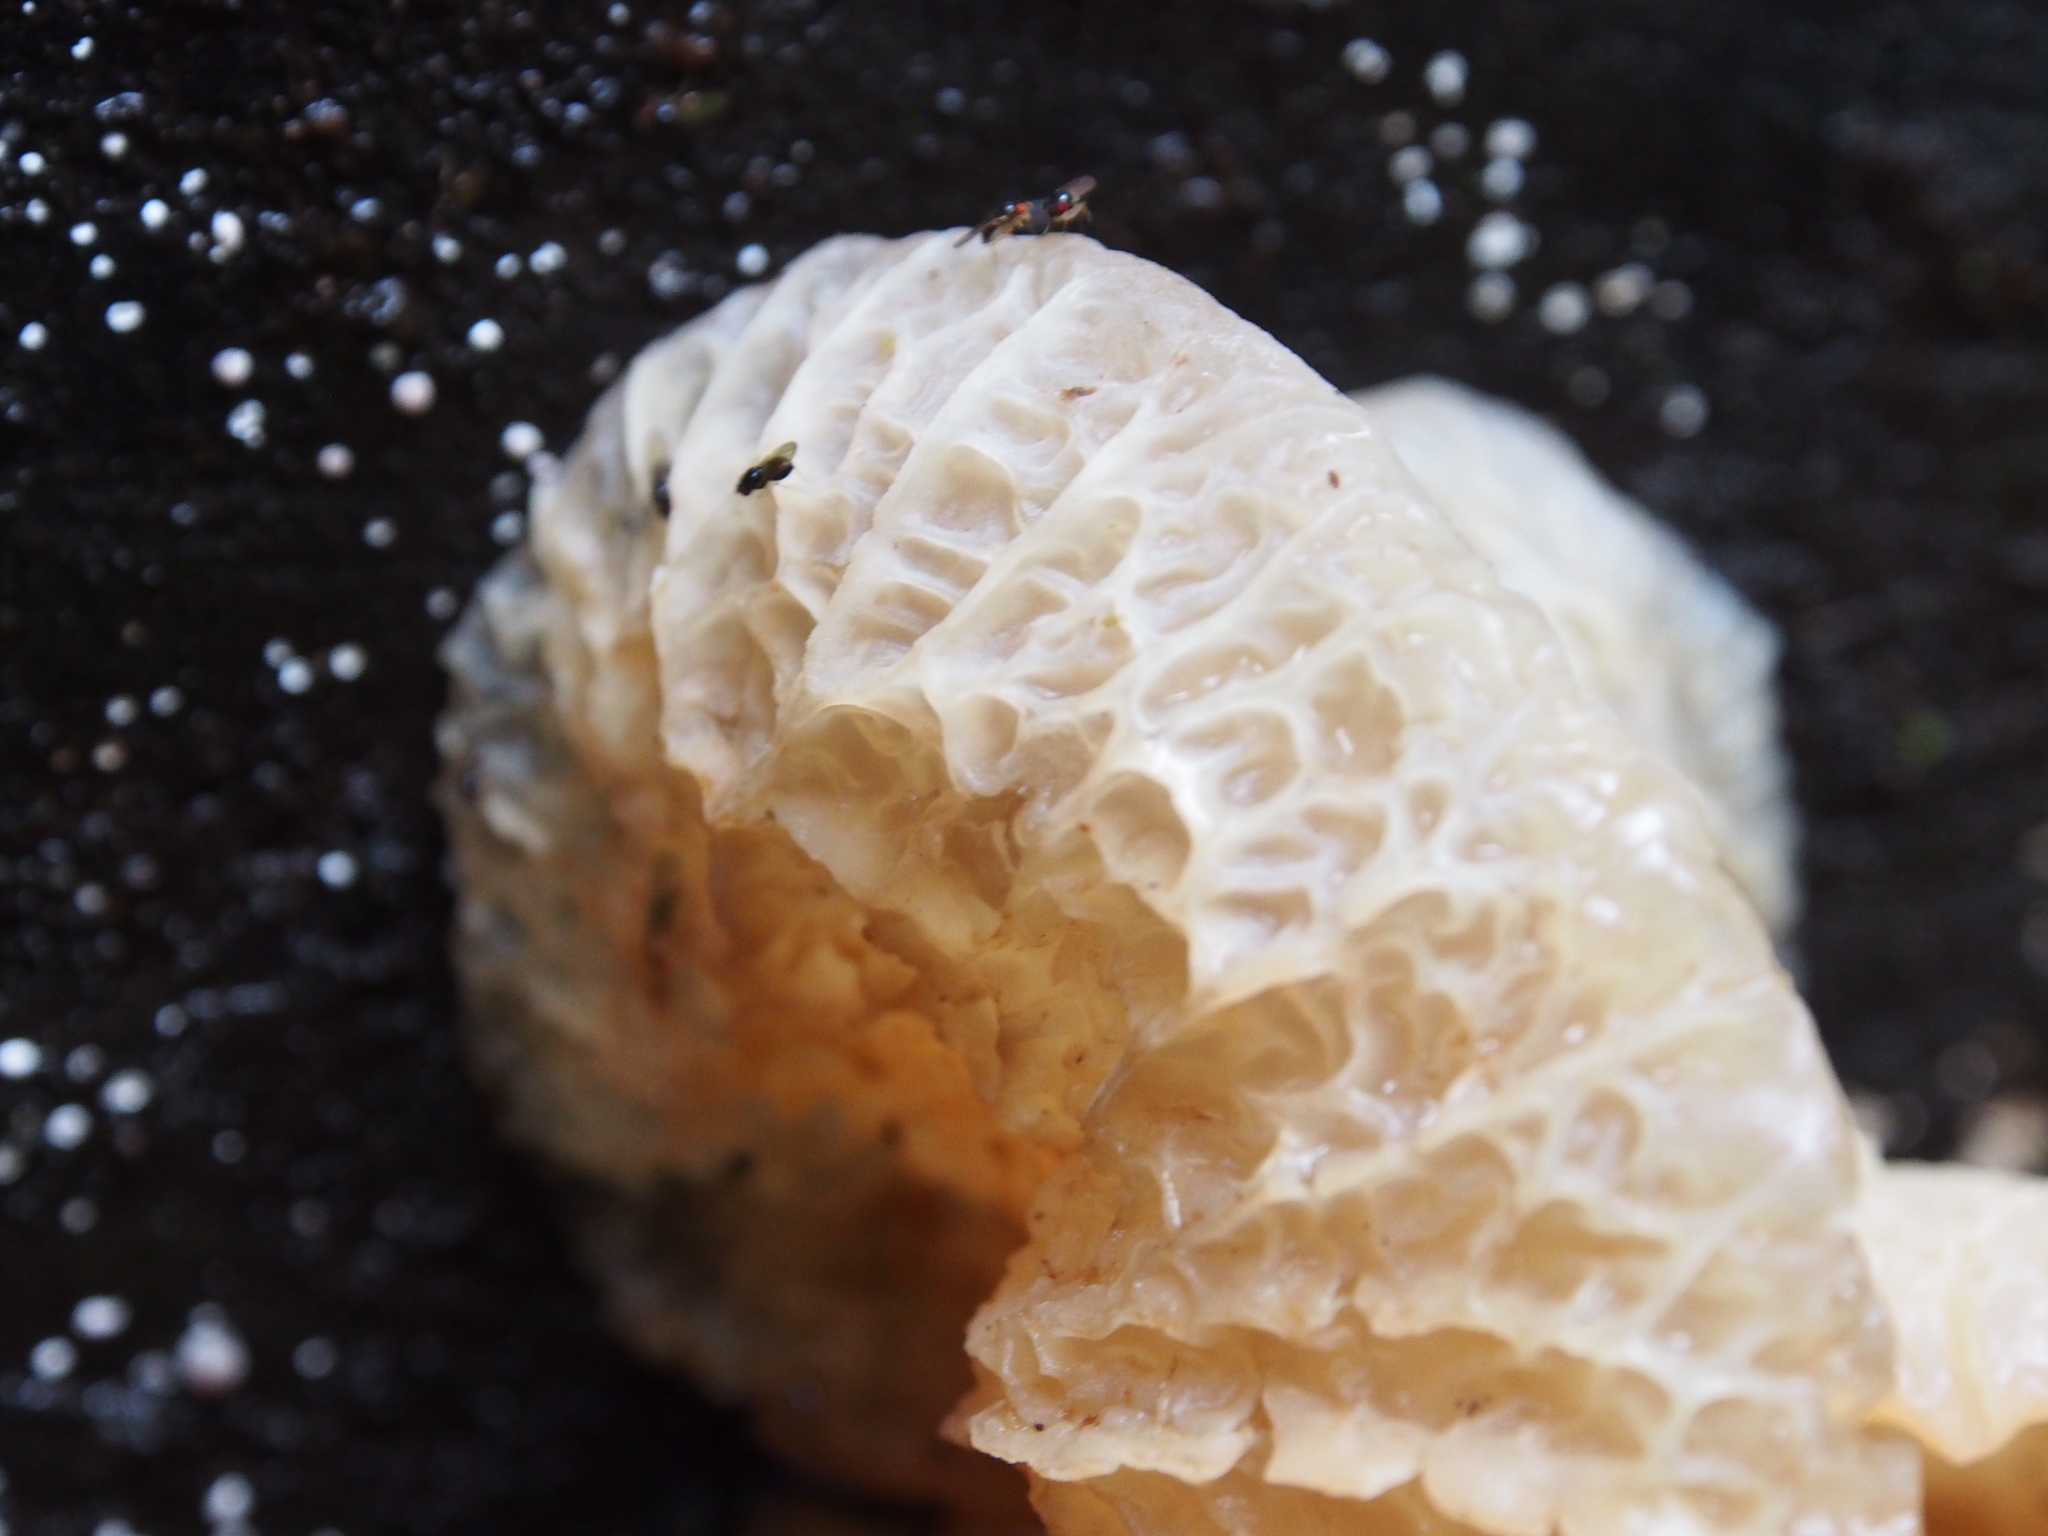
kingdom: Fungi
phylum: Basidiomycota
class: Agaricomycetes
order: Auriculariales
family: Auriculariaceae
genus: Auricularia
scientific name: Auricularia delicata
